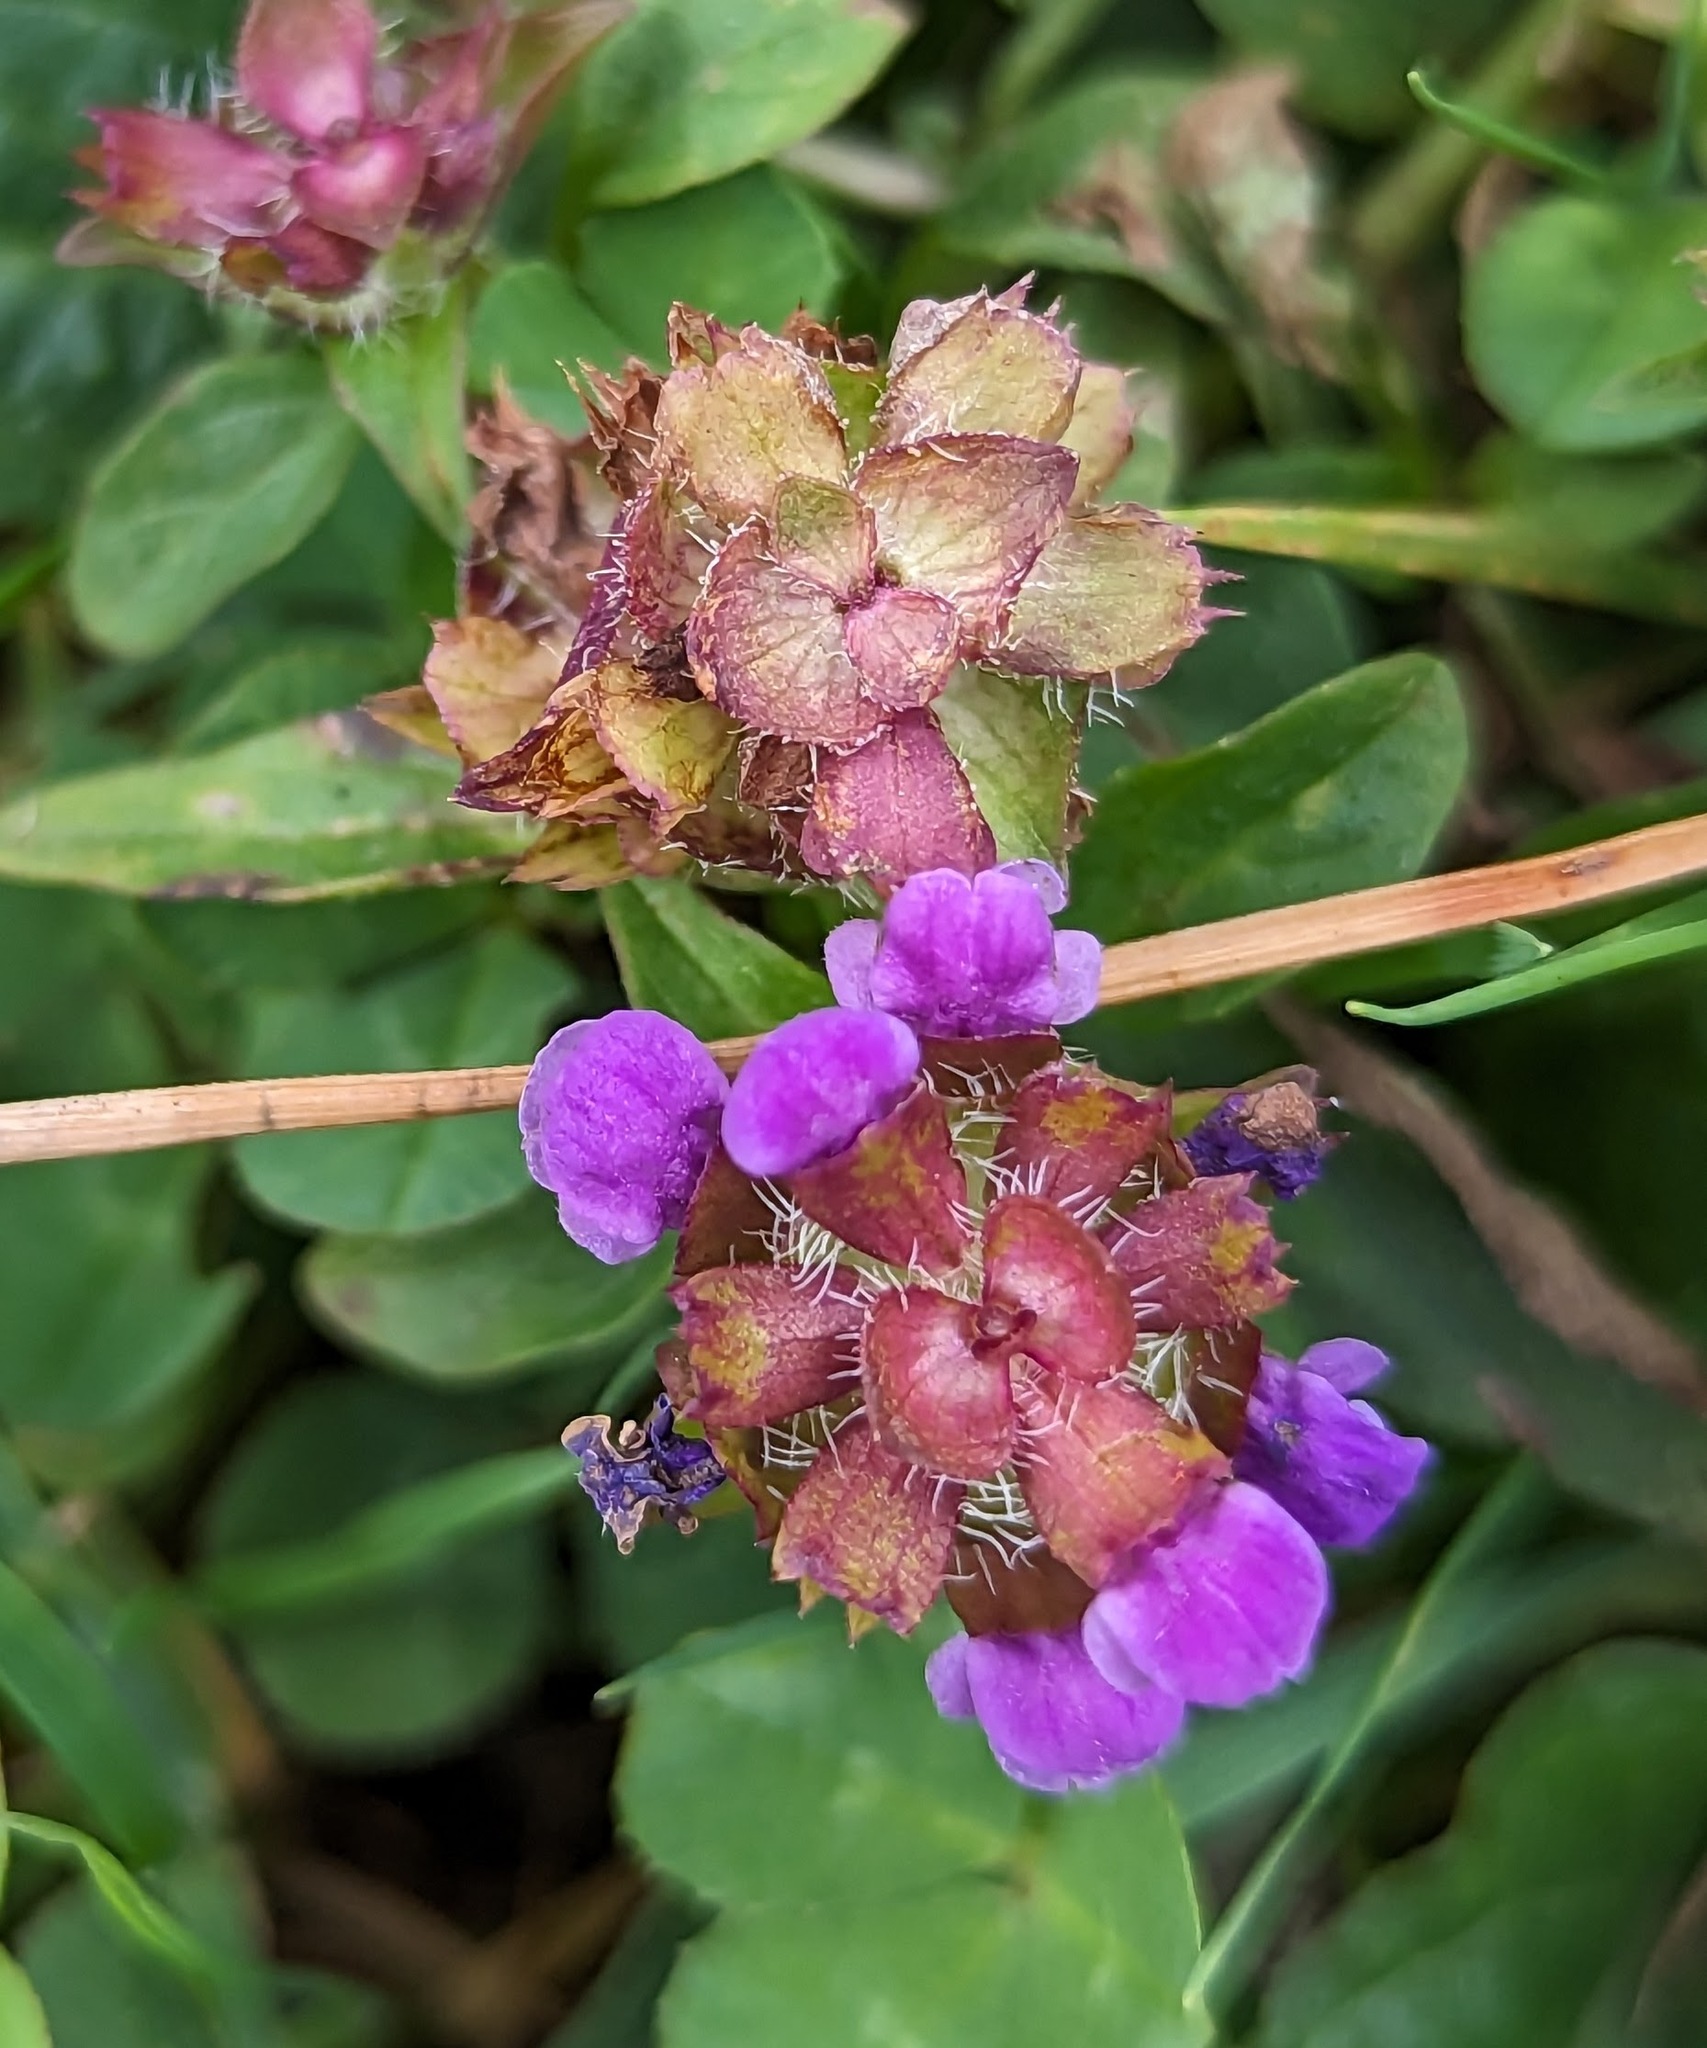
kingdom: Plantae
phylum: Tracheophyta
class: Magnoliopsida
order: Lamiales
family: Lamiaceae
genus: Prunella
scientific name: Prunella vulgaris
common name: Heal-all
